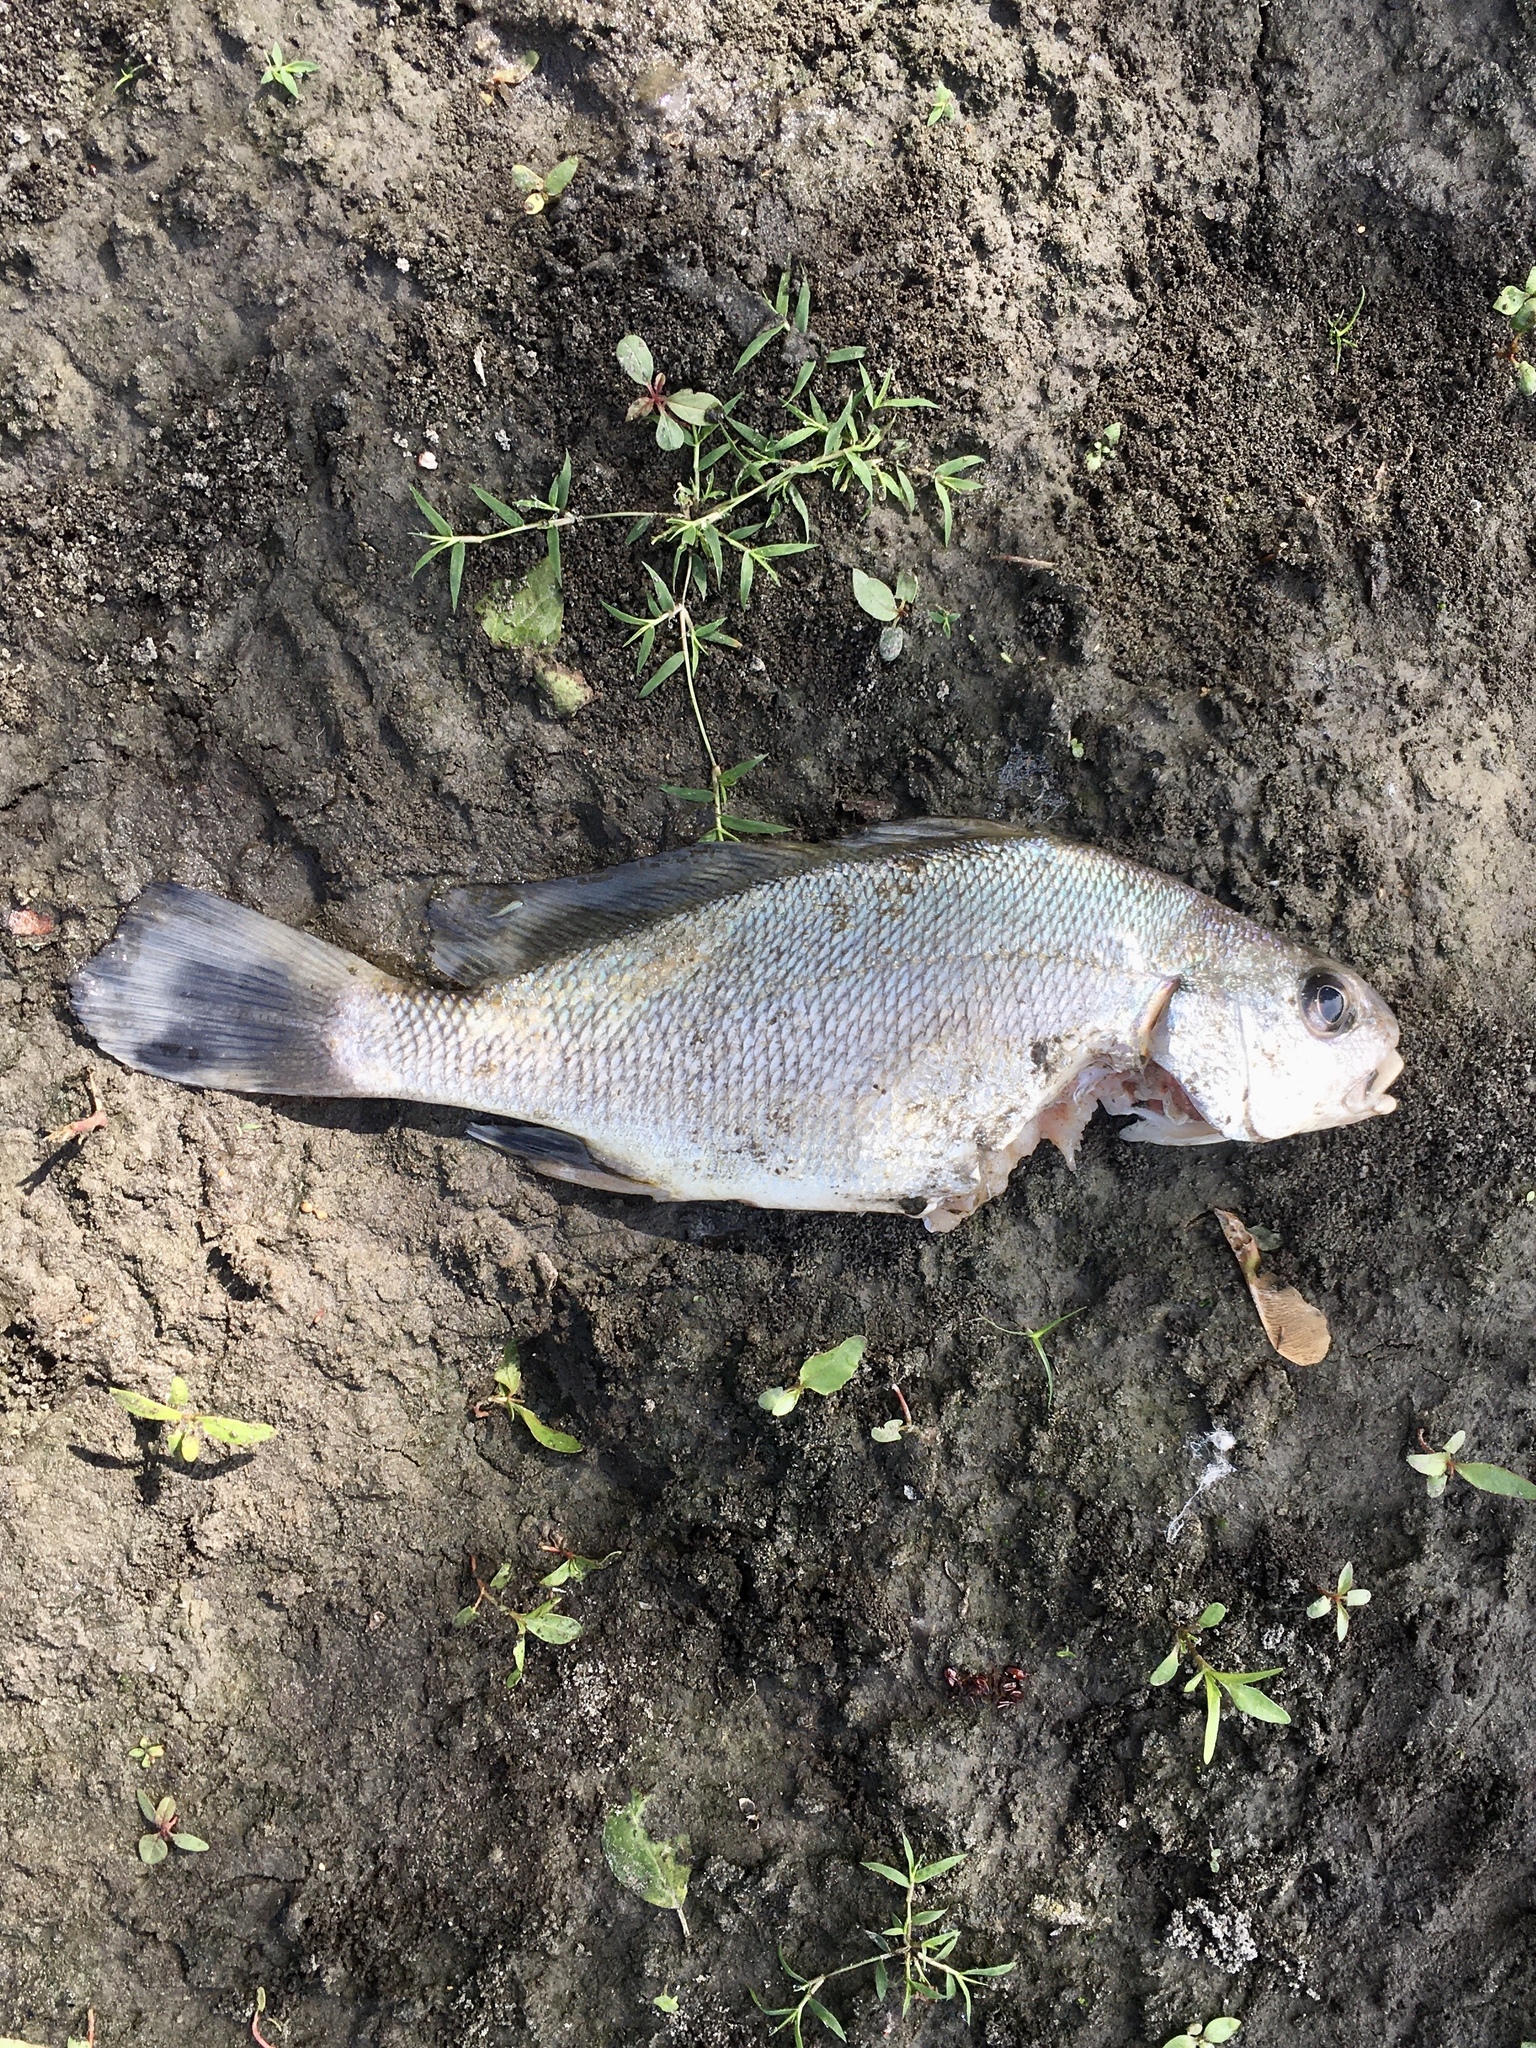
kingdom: Animalia
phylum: Chordata
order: Perciformes
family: Sciaenidae
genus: Aplodinotus
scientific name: Aplodinotus grunniens
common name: Freshwater drum
